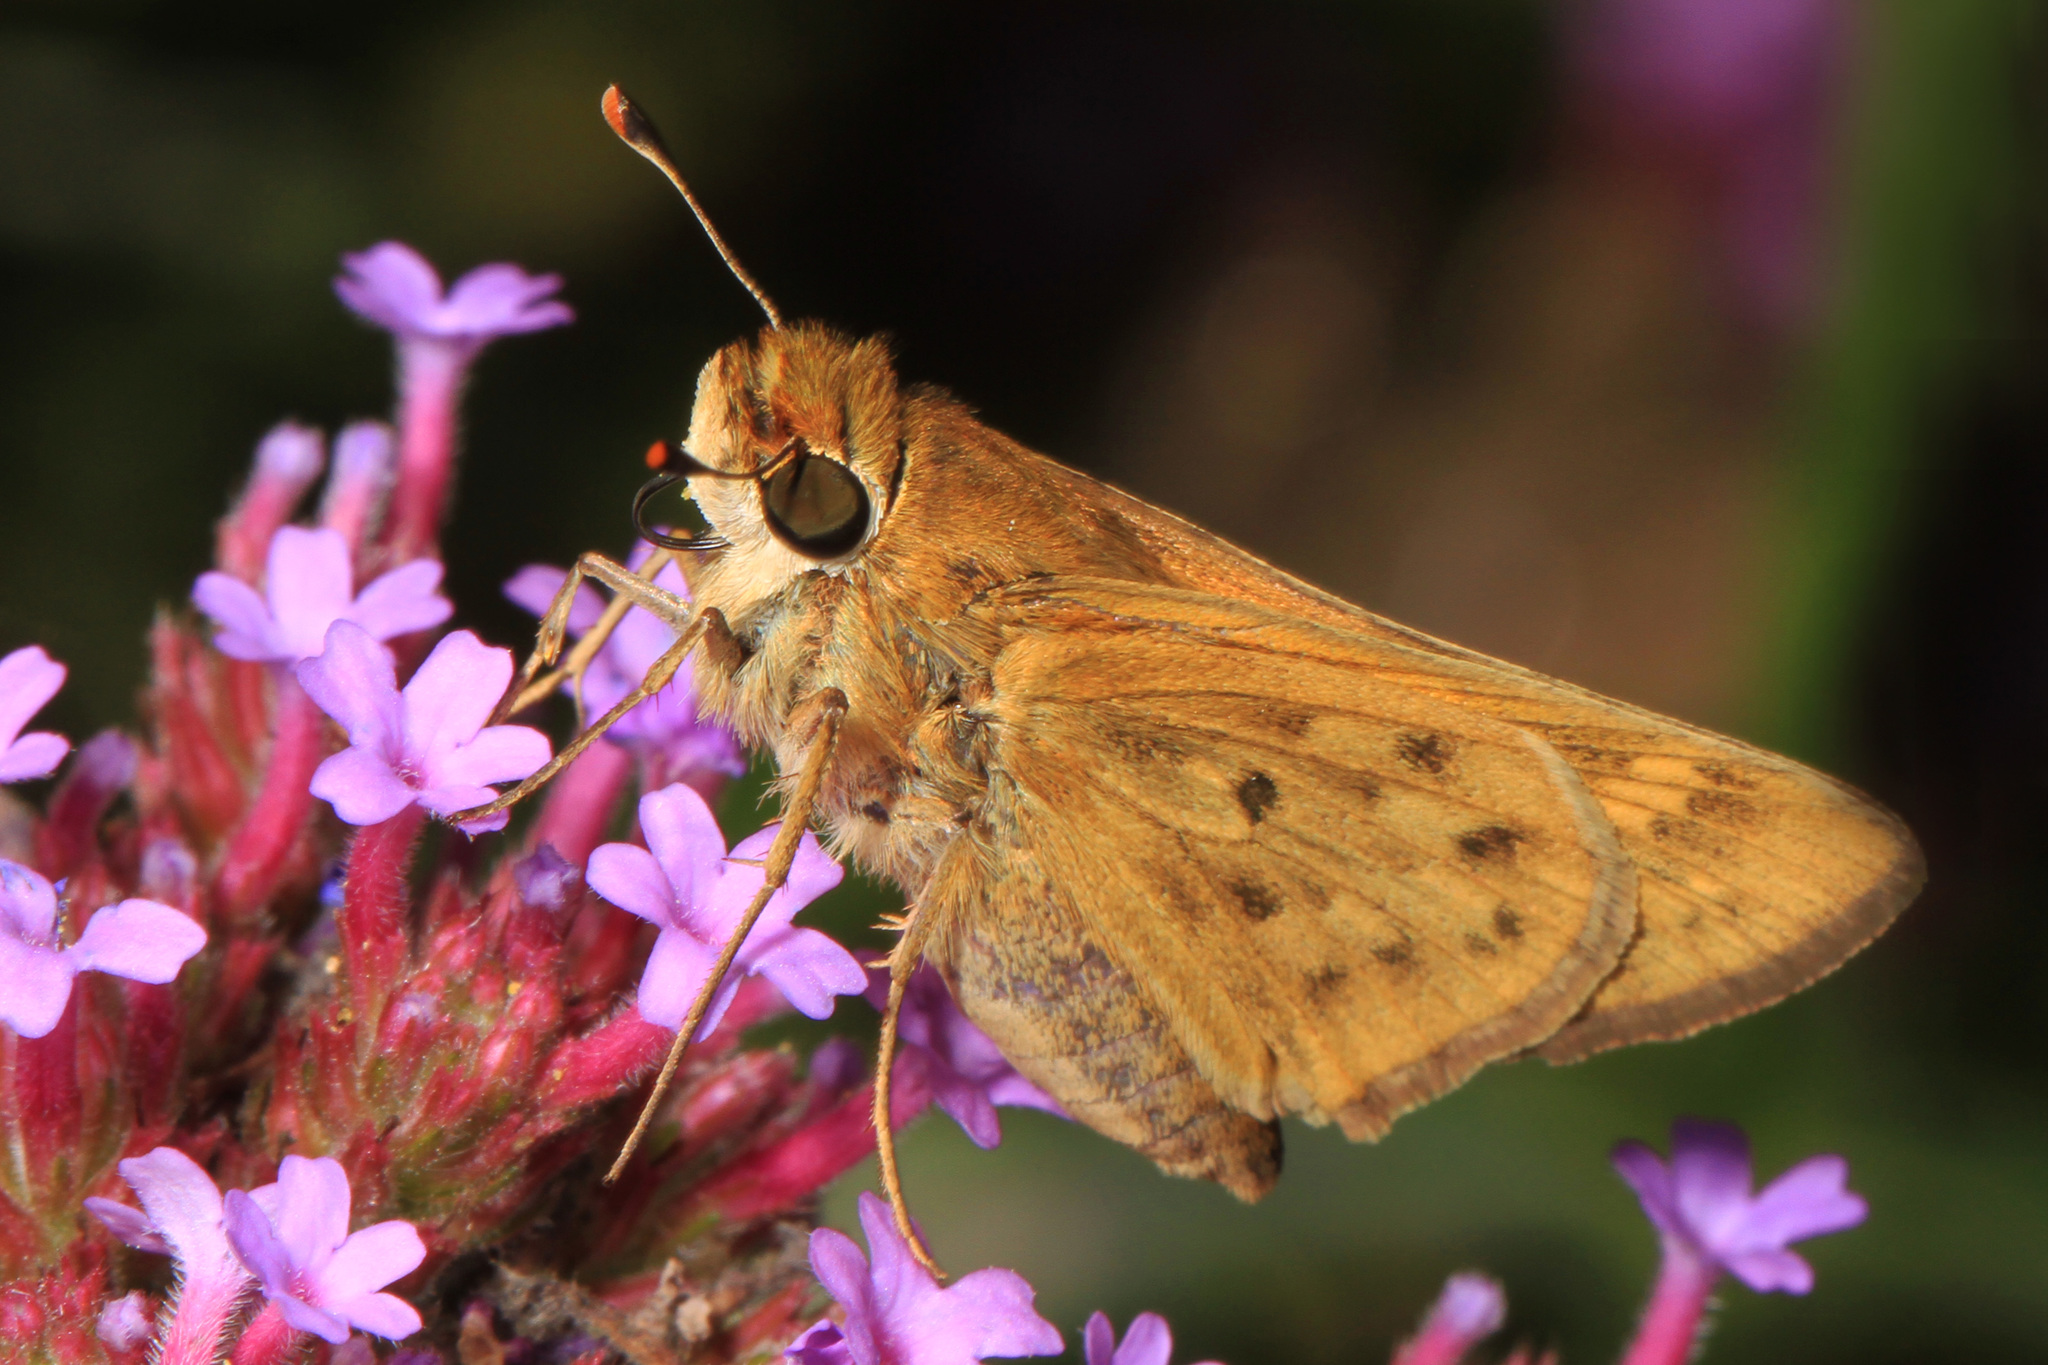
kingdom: Animalia
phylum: Arthropoda
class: Insecta
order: Lepidoptera
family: Hesperiidae
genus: Hylephila
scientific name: Hylephila phyleus
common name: Fiery skipper
